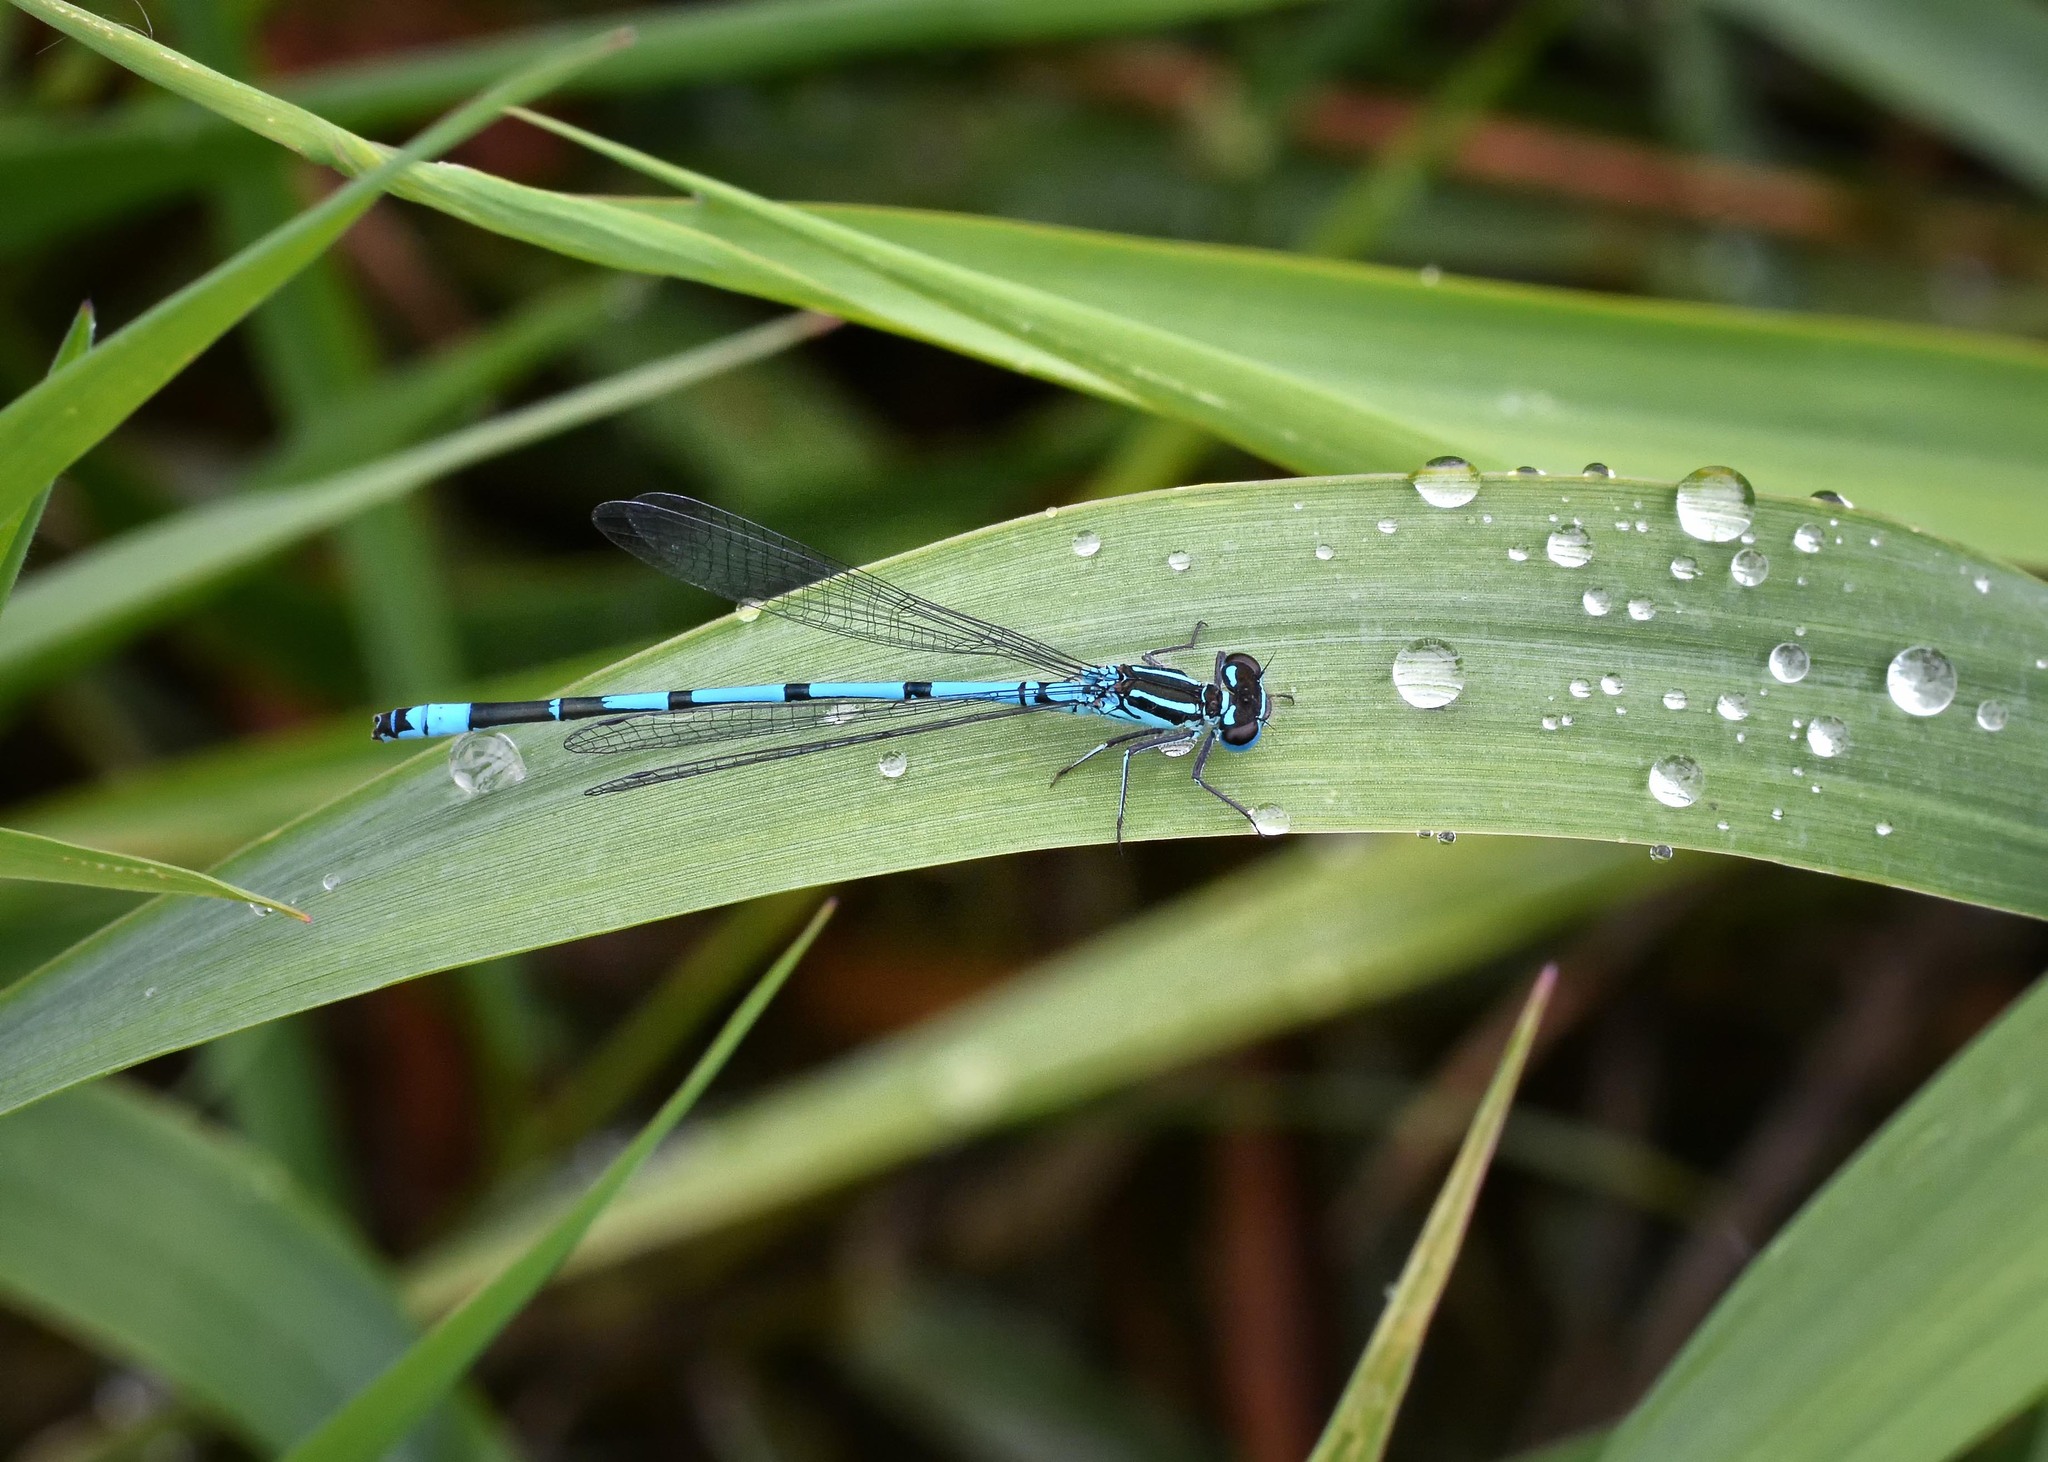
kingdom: Animalia
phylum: Arthropoda
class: Insecta
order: Odonata
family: Coenagrionidae
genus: Coenagrion
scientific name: Coenagrion puella
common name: Azure damselfly
